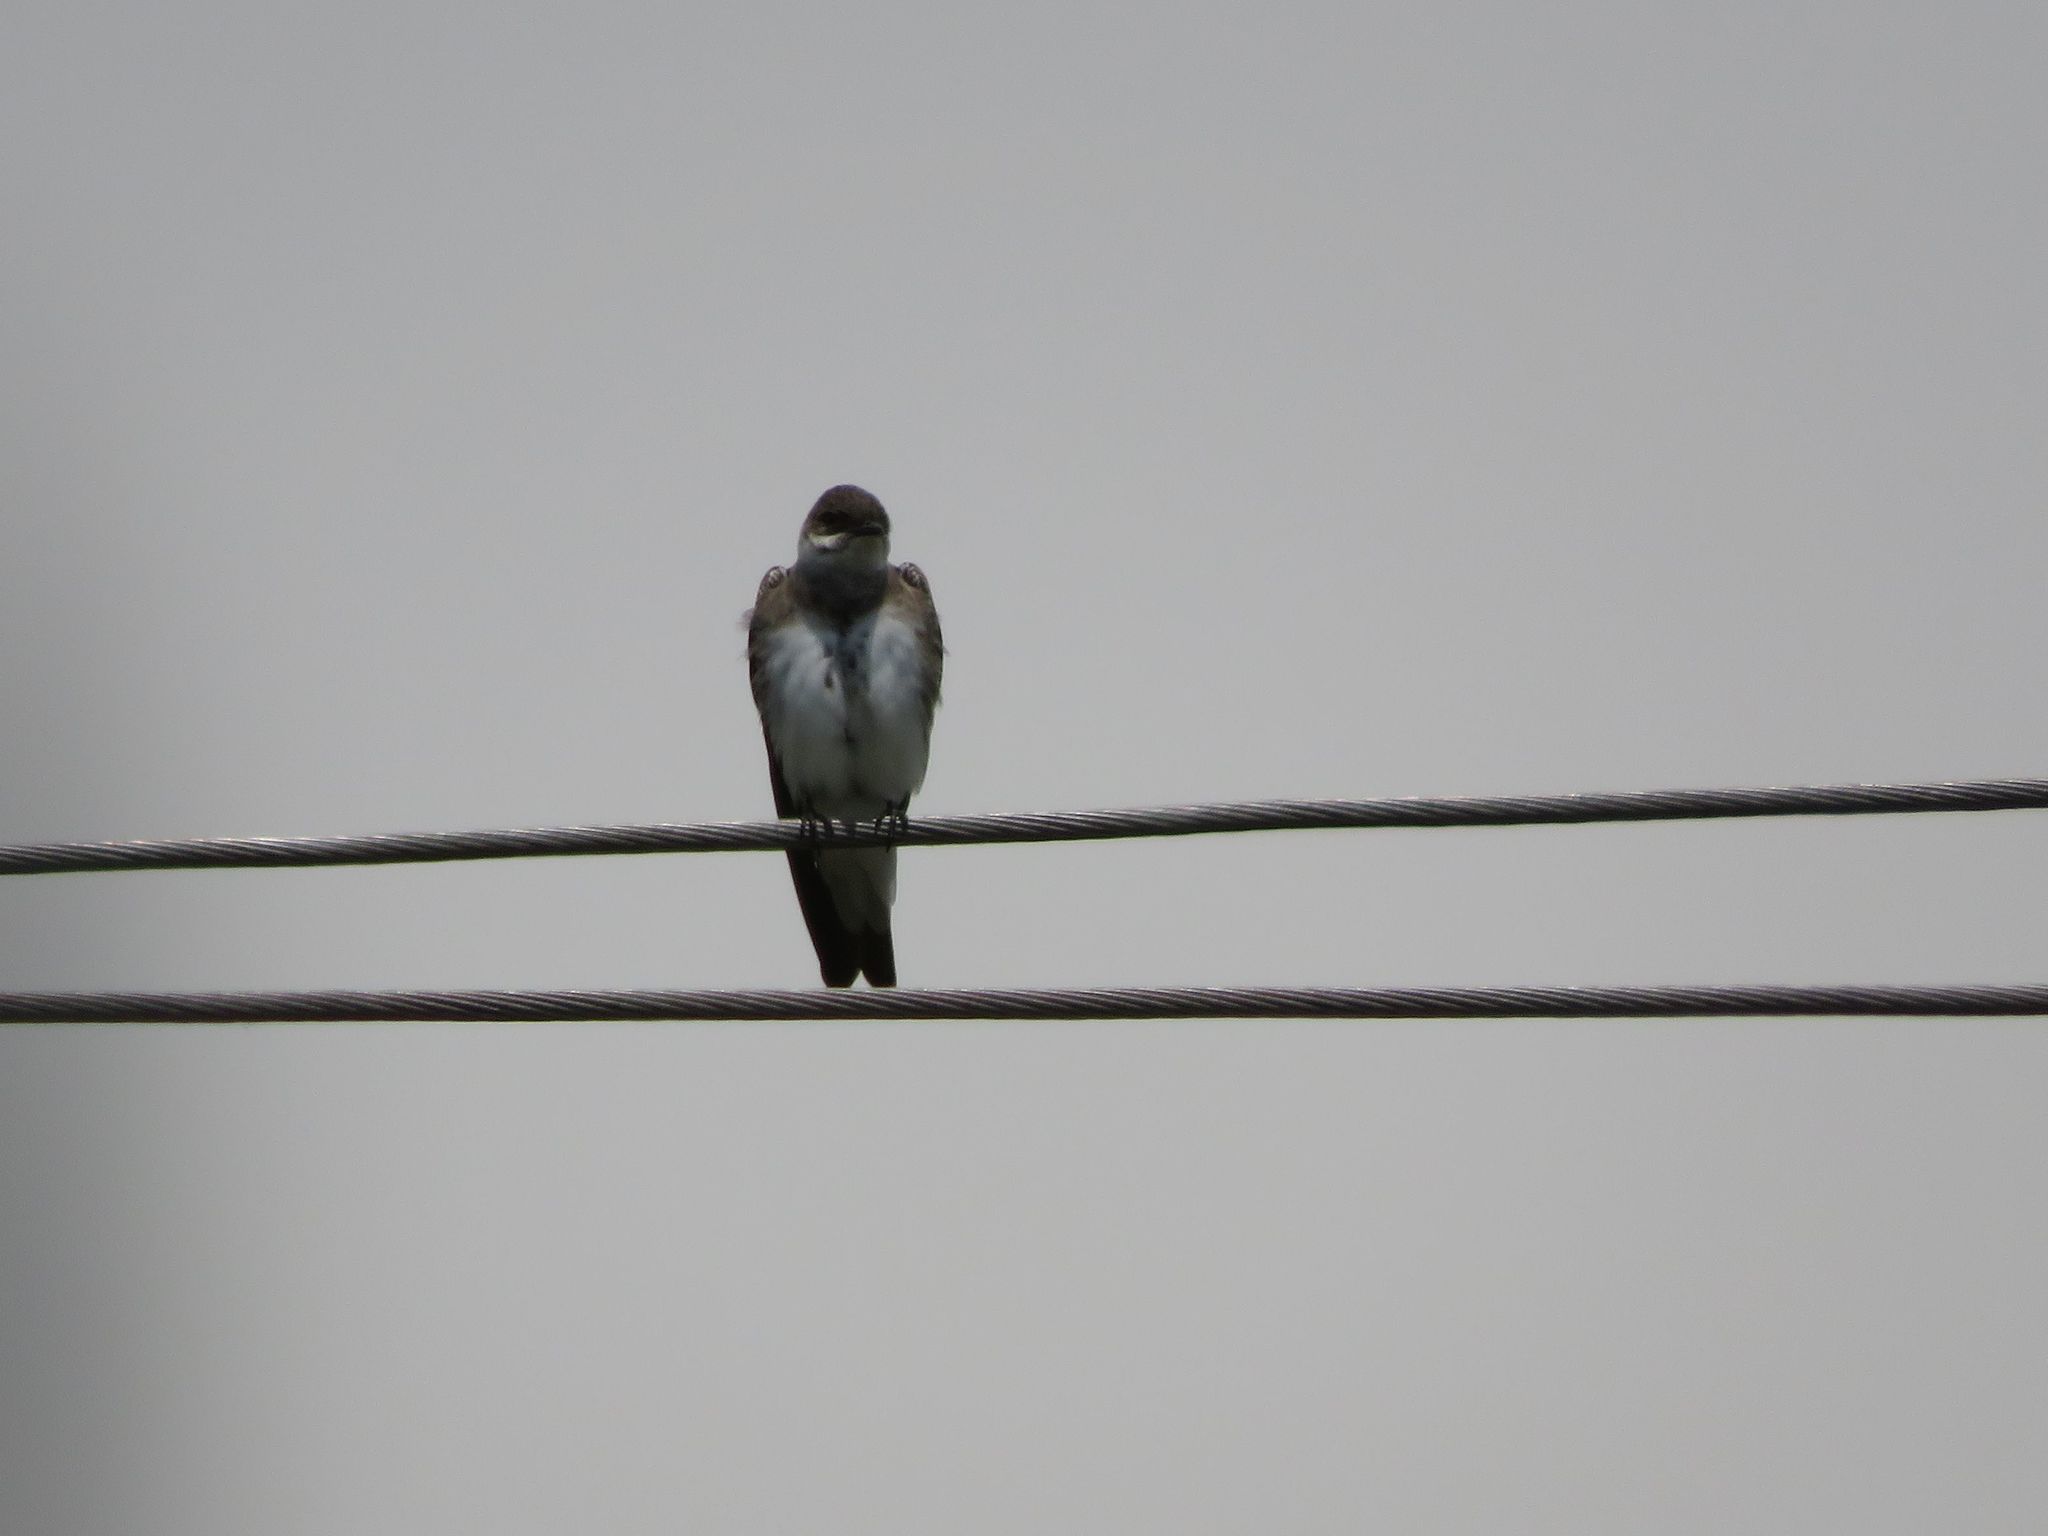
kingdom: Animalia
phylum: Chordata
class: Aves
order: Passeriformes
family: Hirundinidae
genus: Progne
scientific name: Progne tapera
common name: Brown-chested martin
